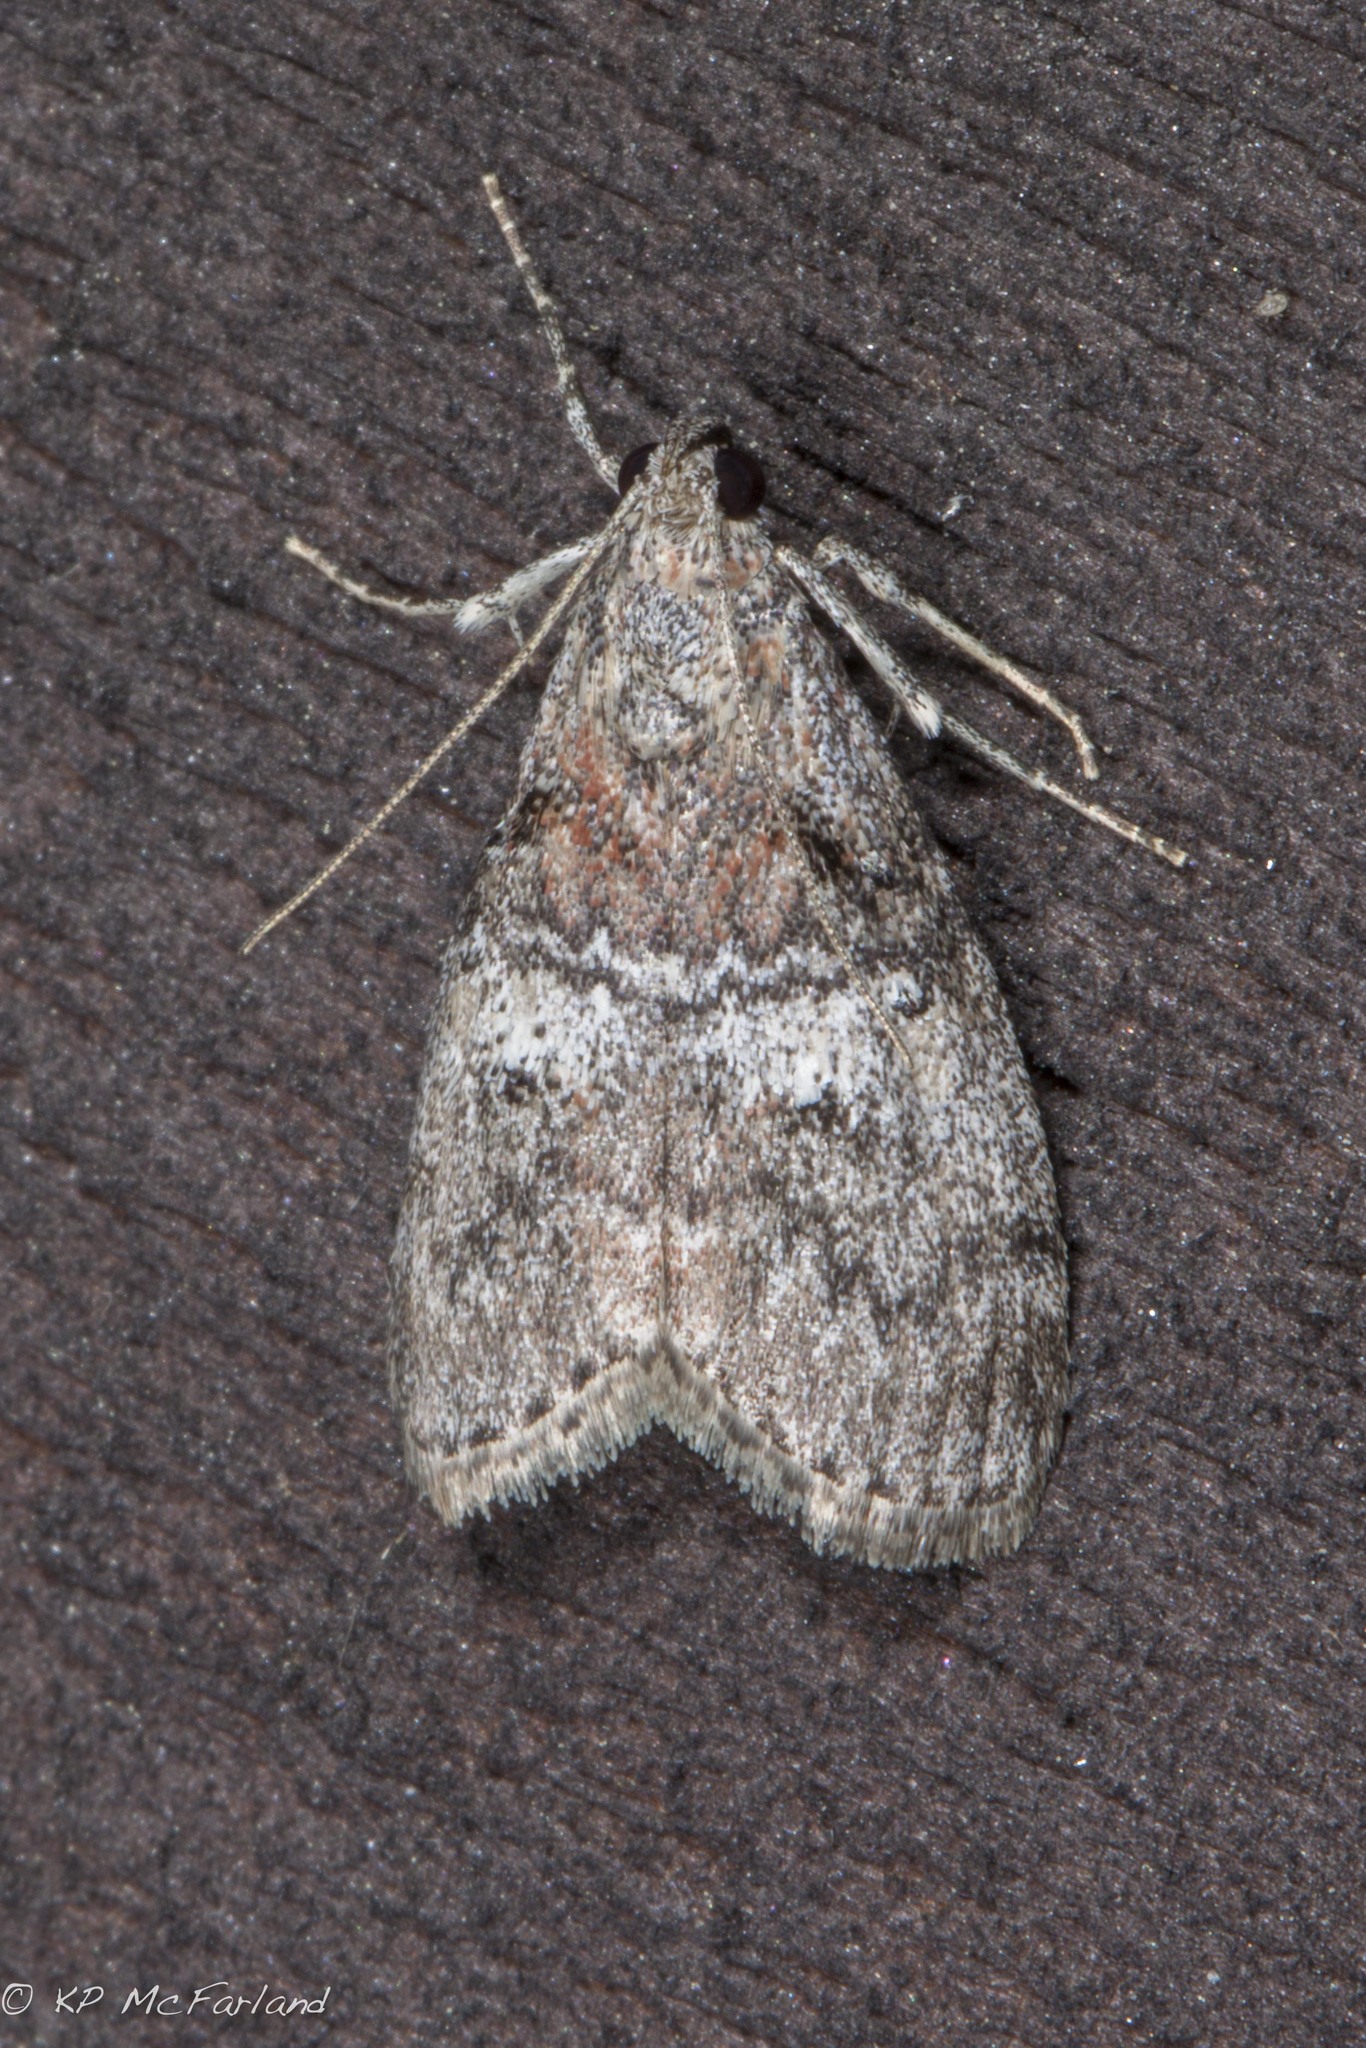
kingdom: Animalia
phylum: Arthropoda
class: Insecta
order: Lepidoptera
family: Pyralidae
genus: Pococera
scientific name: Pococera asperatella
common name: Maple webworm moth
